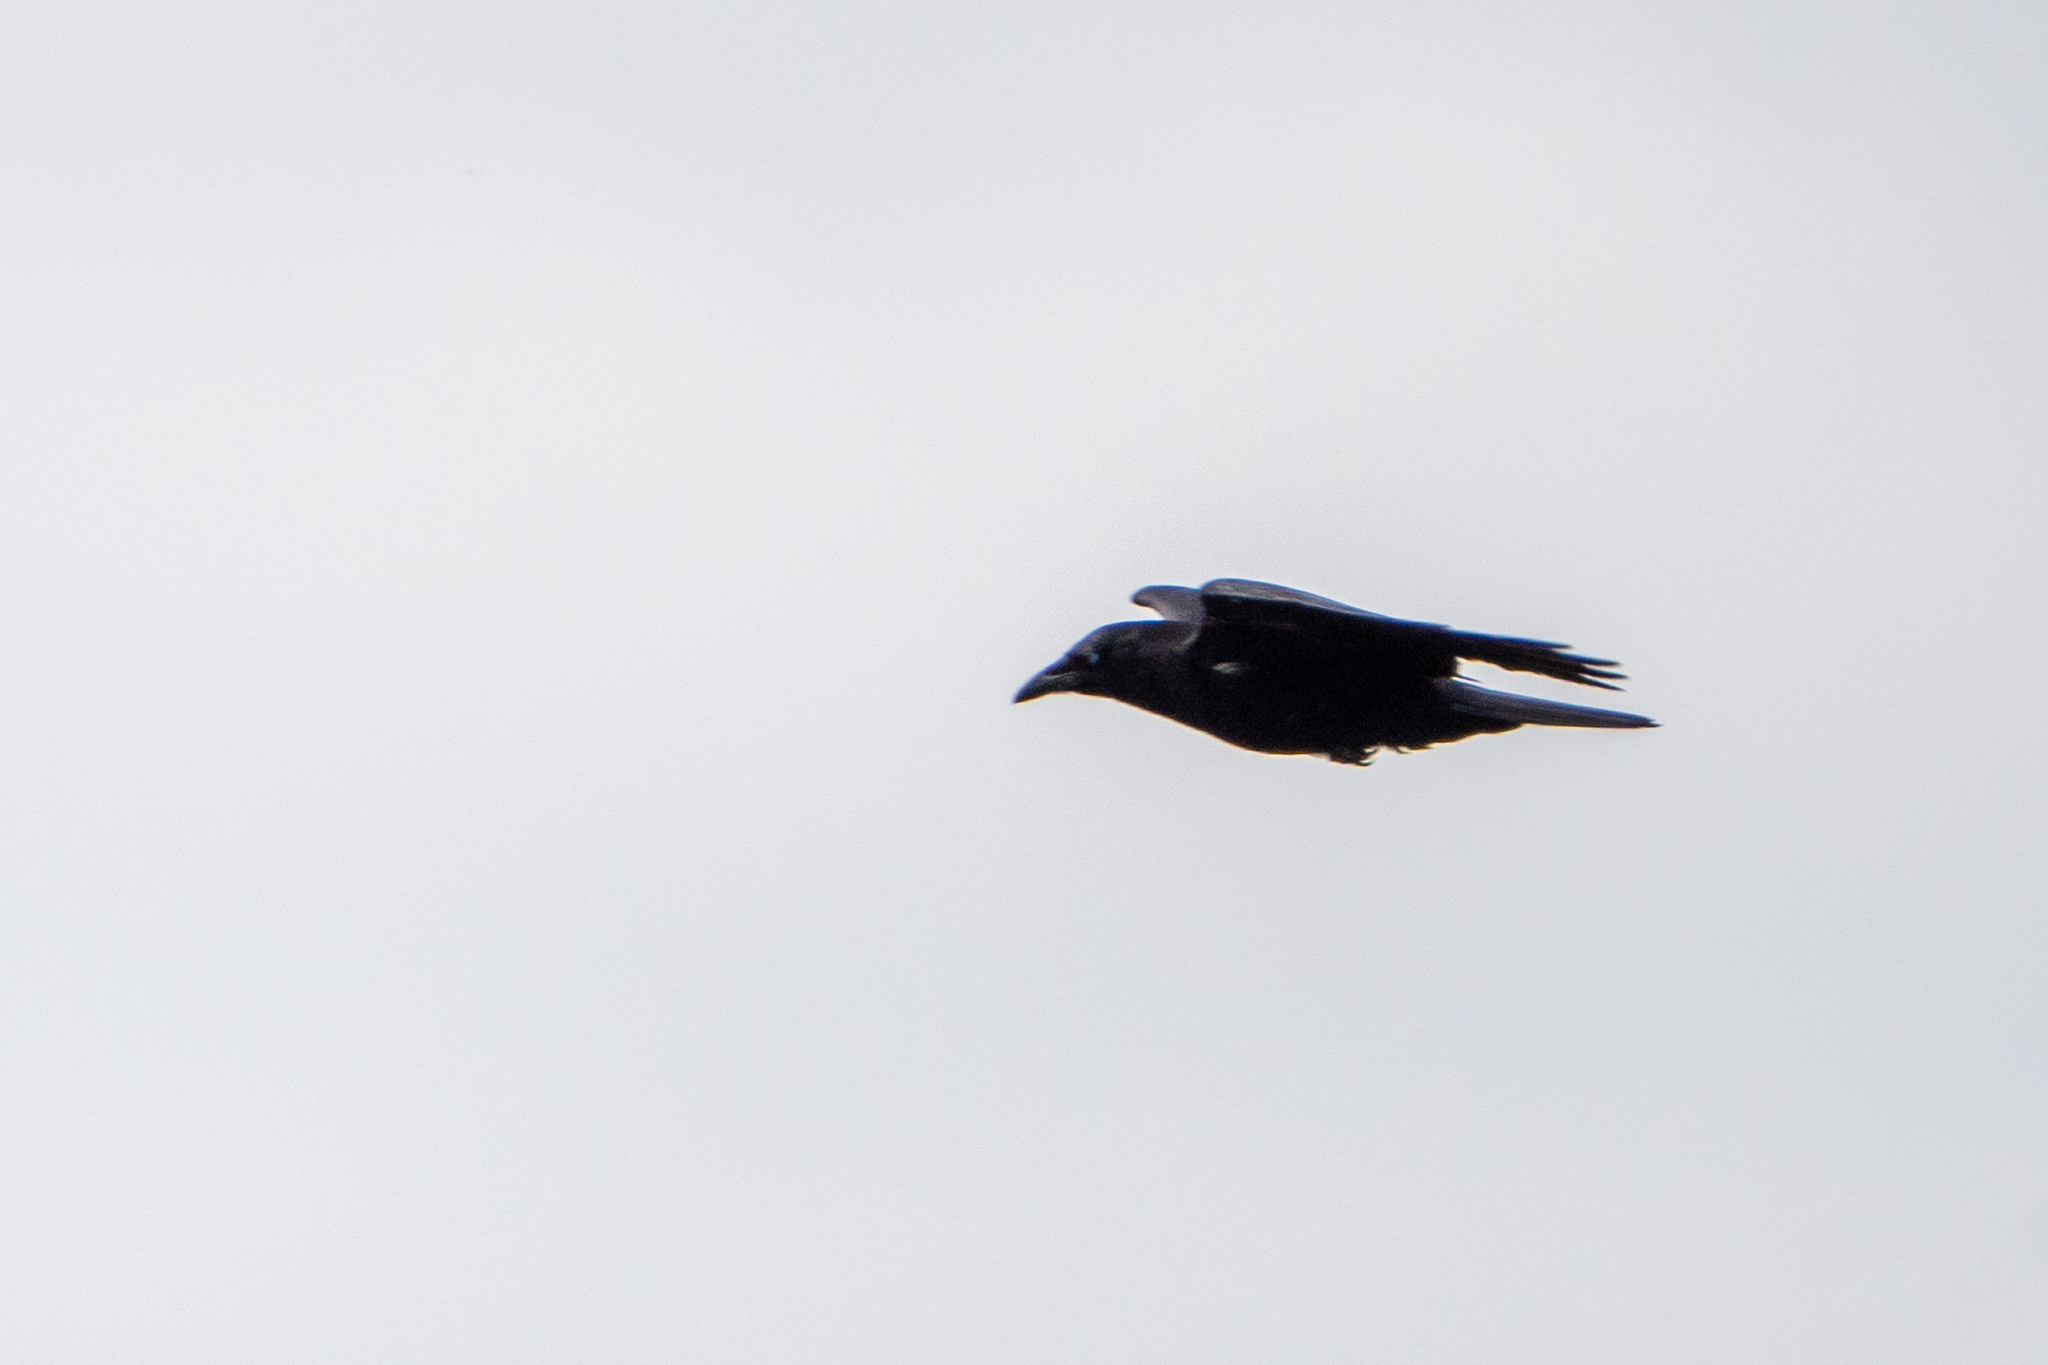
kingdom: Animalia
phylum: Chordata
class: Aves
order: Passeriformes
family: Corvidae
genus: Corvus
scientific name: Corvus brachyrhynchos
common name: American crow
